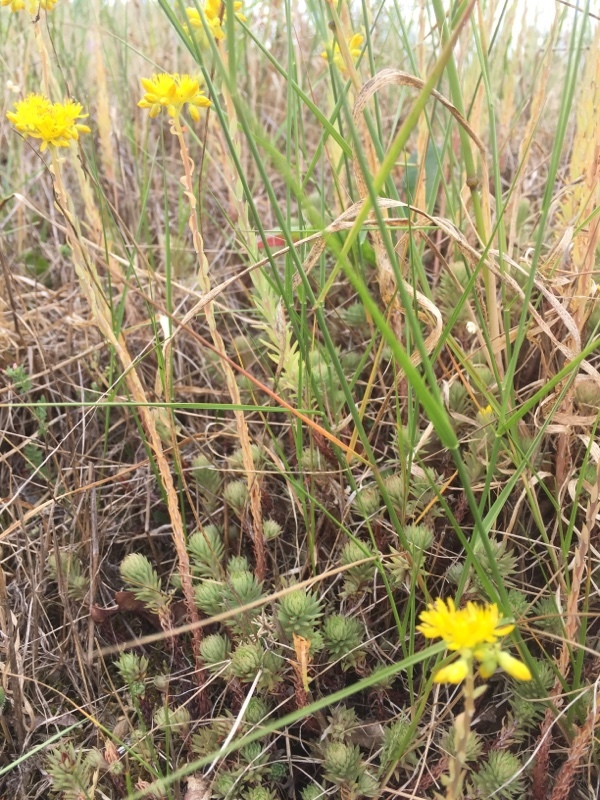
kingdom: Plantae
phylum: Tracheophyta
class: Magnoliopsida
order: Saxifragales
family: Crassulaceae
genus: Petrosedum
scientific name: Petrosedum forsterianum
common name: Forster's stonecrop
